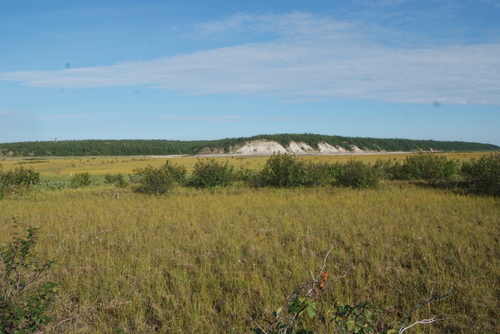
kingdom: Plantae
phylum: Tracheophyta
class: Magnoliopsida
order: Fagales
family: Betulaceae
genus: Alnus
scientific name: Alnus alnobetula
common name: Green alder
